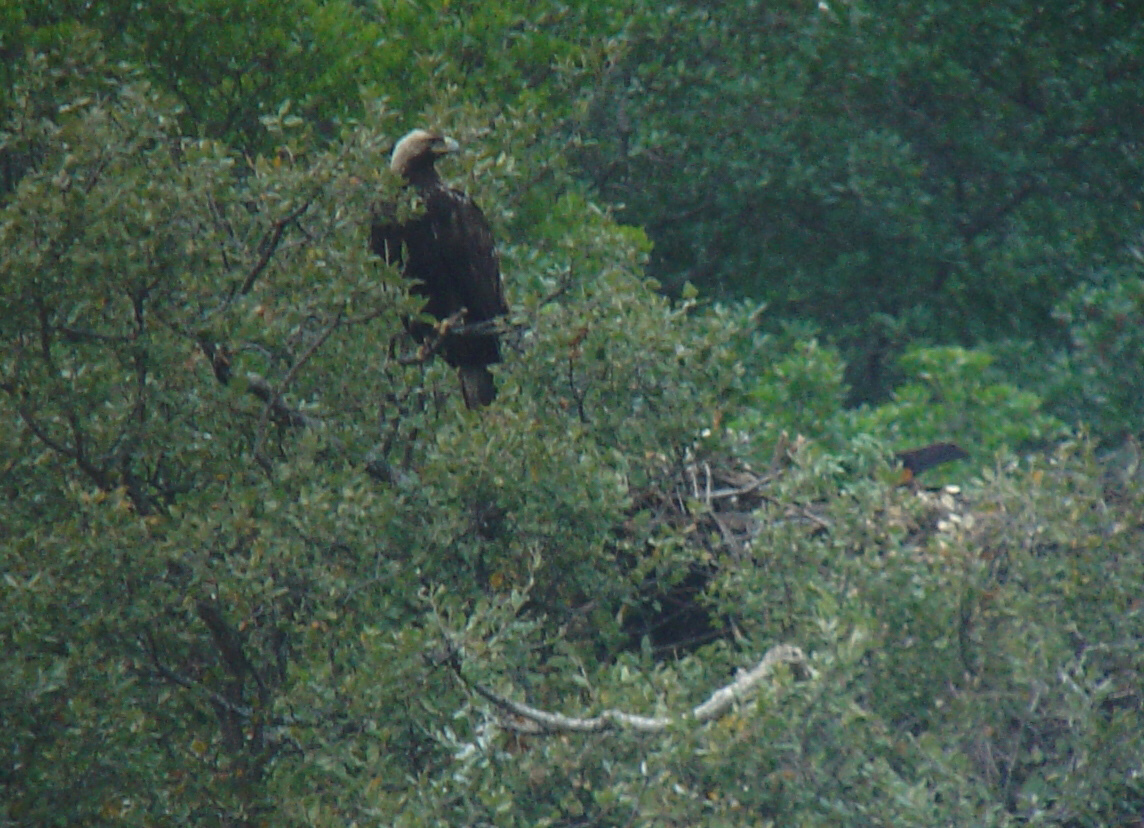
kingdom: Animalia
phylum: Chordata
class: Aves
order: Accipitriformes
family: Accipitridae
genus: Aquila
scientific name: Aquila adalberti
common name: Spanish imperial eagle
